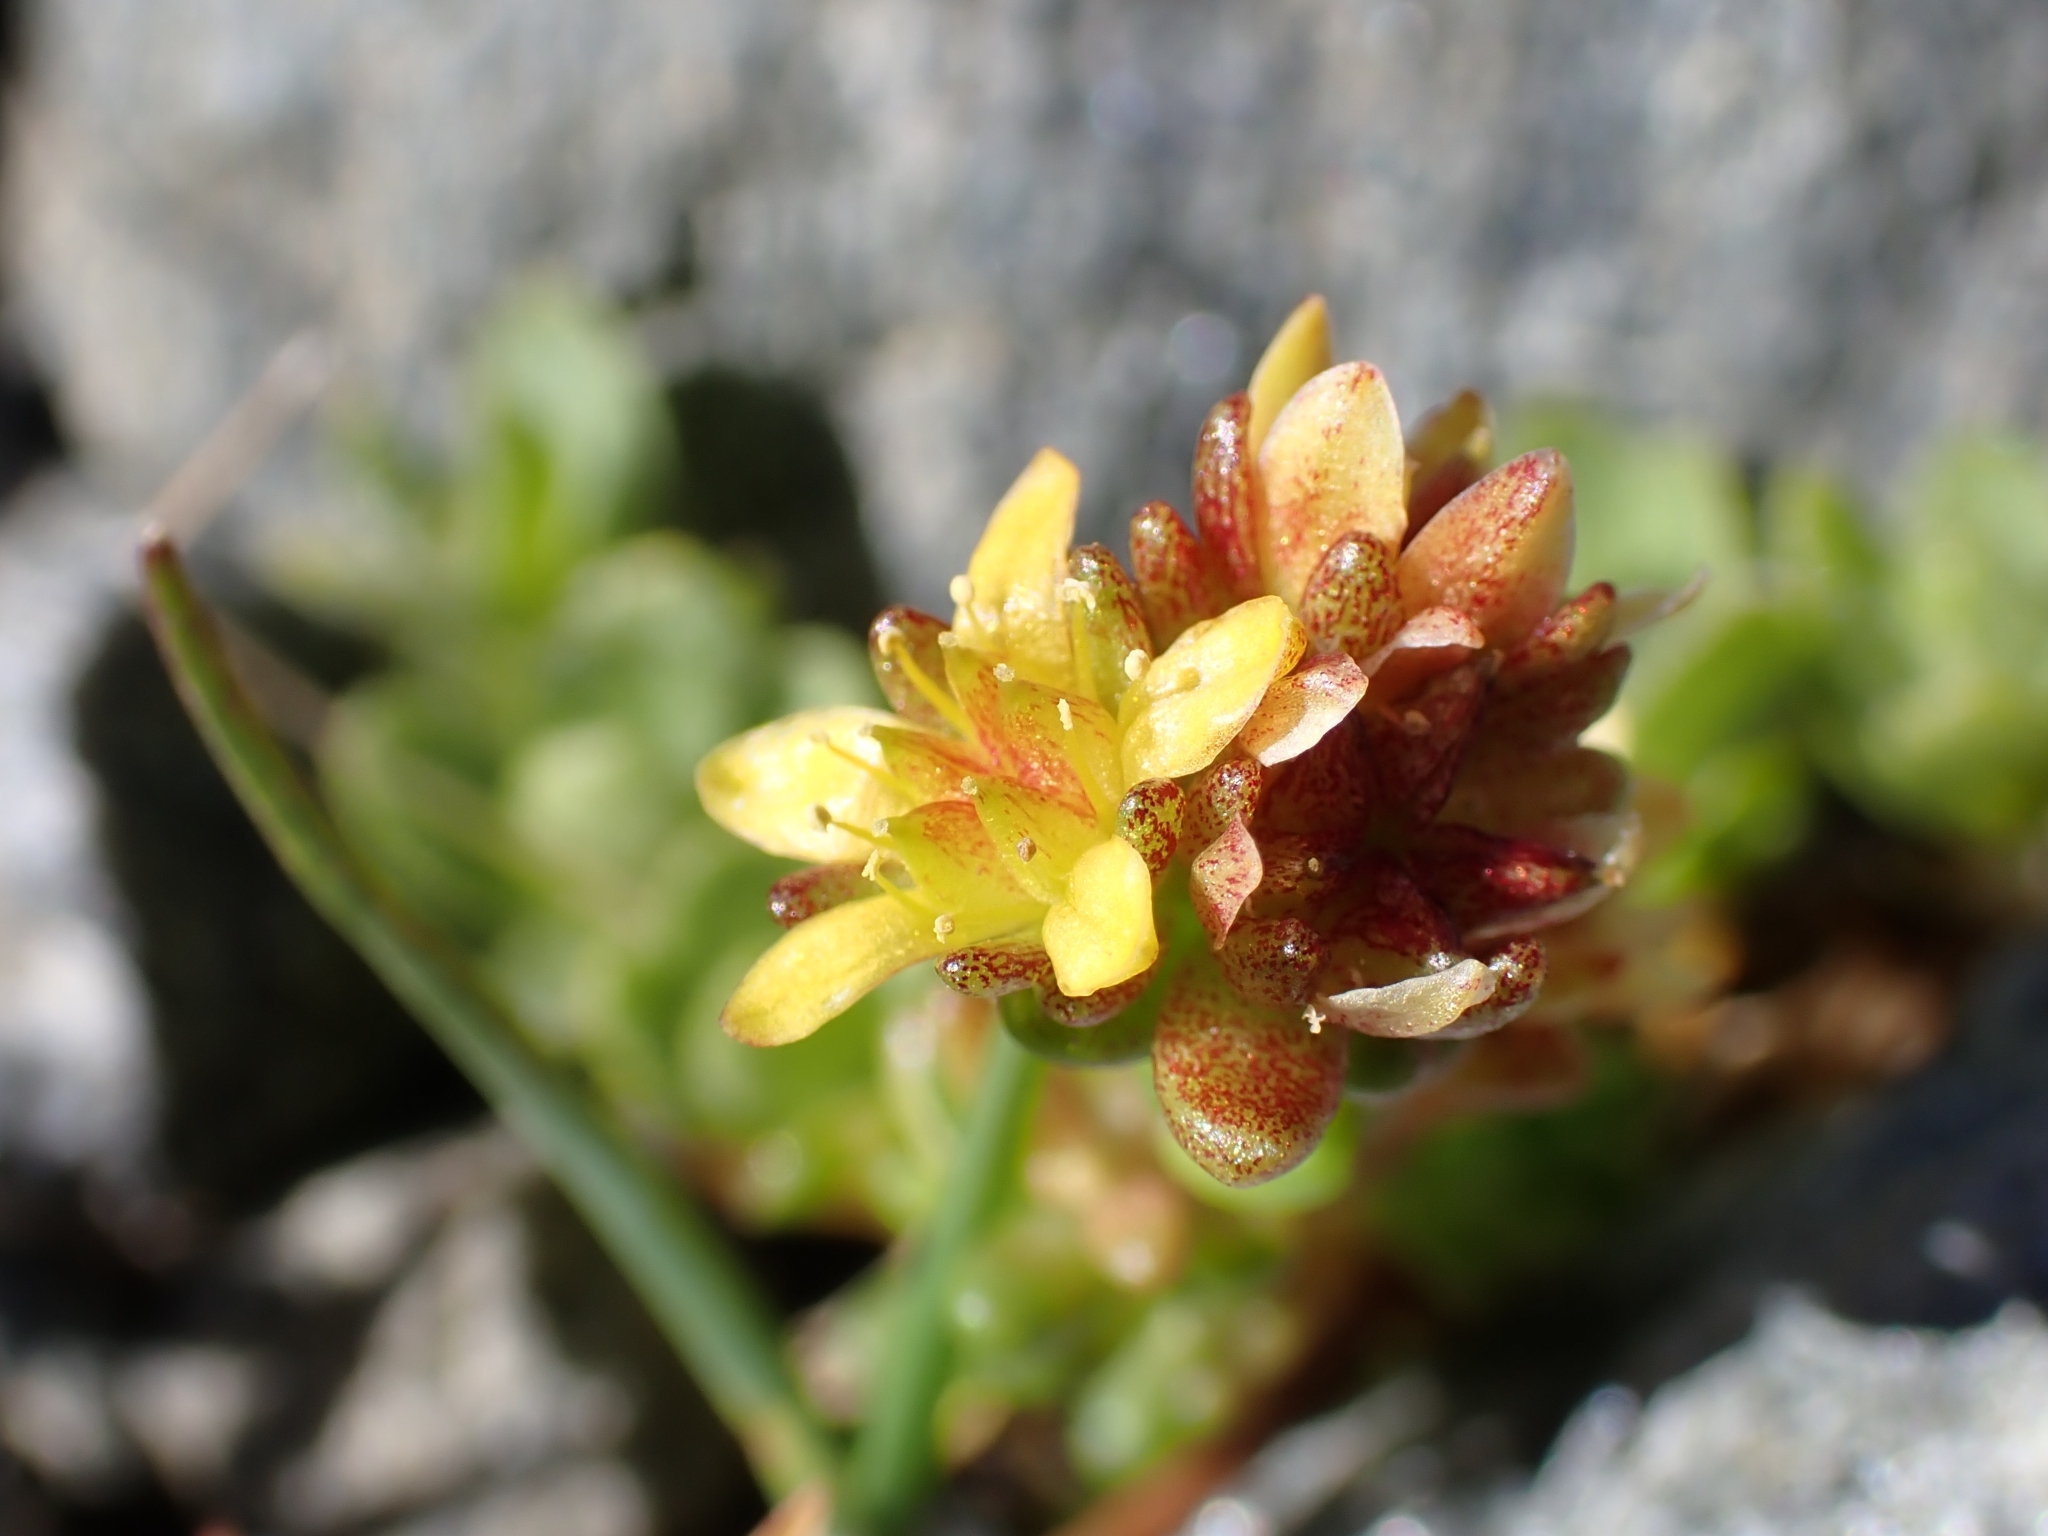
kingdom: Plantae
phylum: Tracheophyta
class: Magnoliopsida
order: Saxifragales
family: Crassulaceae
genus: Sedum
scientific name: Sedum alpestre
